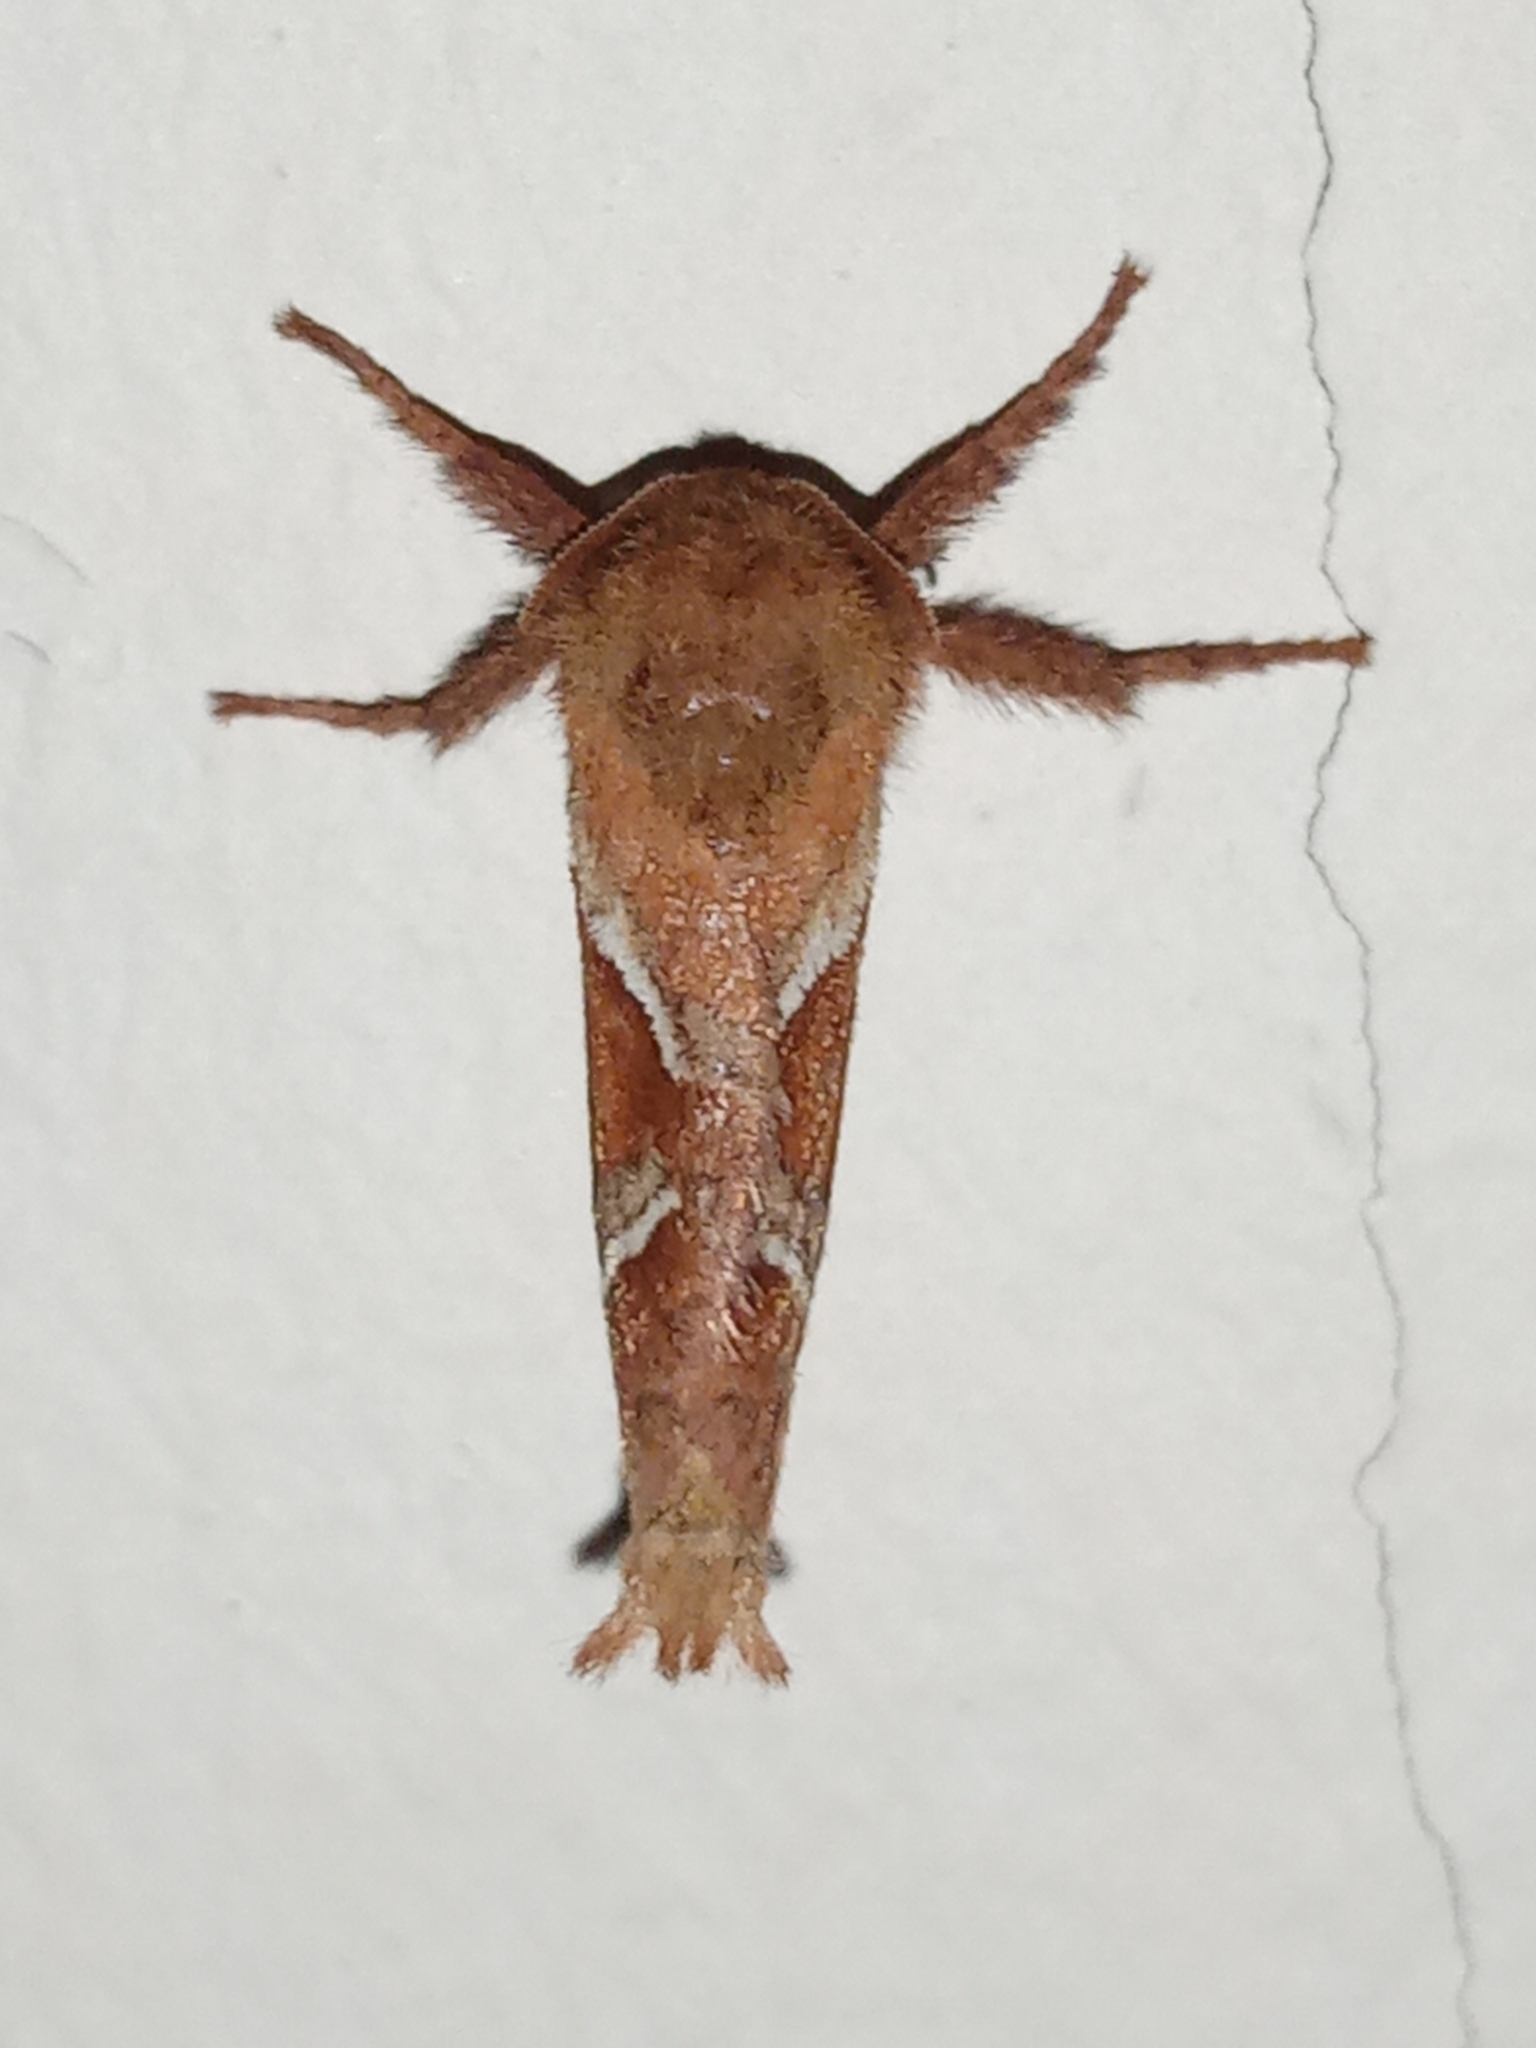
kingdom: Animalia
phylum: Arthropoda
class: Insecta
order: Lepidoptera
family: Hepialidae
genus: Triodia
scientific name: Triodia sylvina
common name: Orange swift
